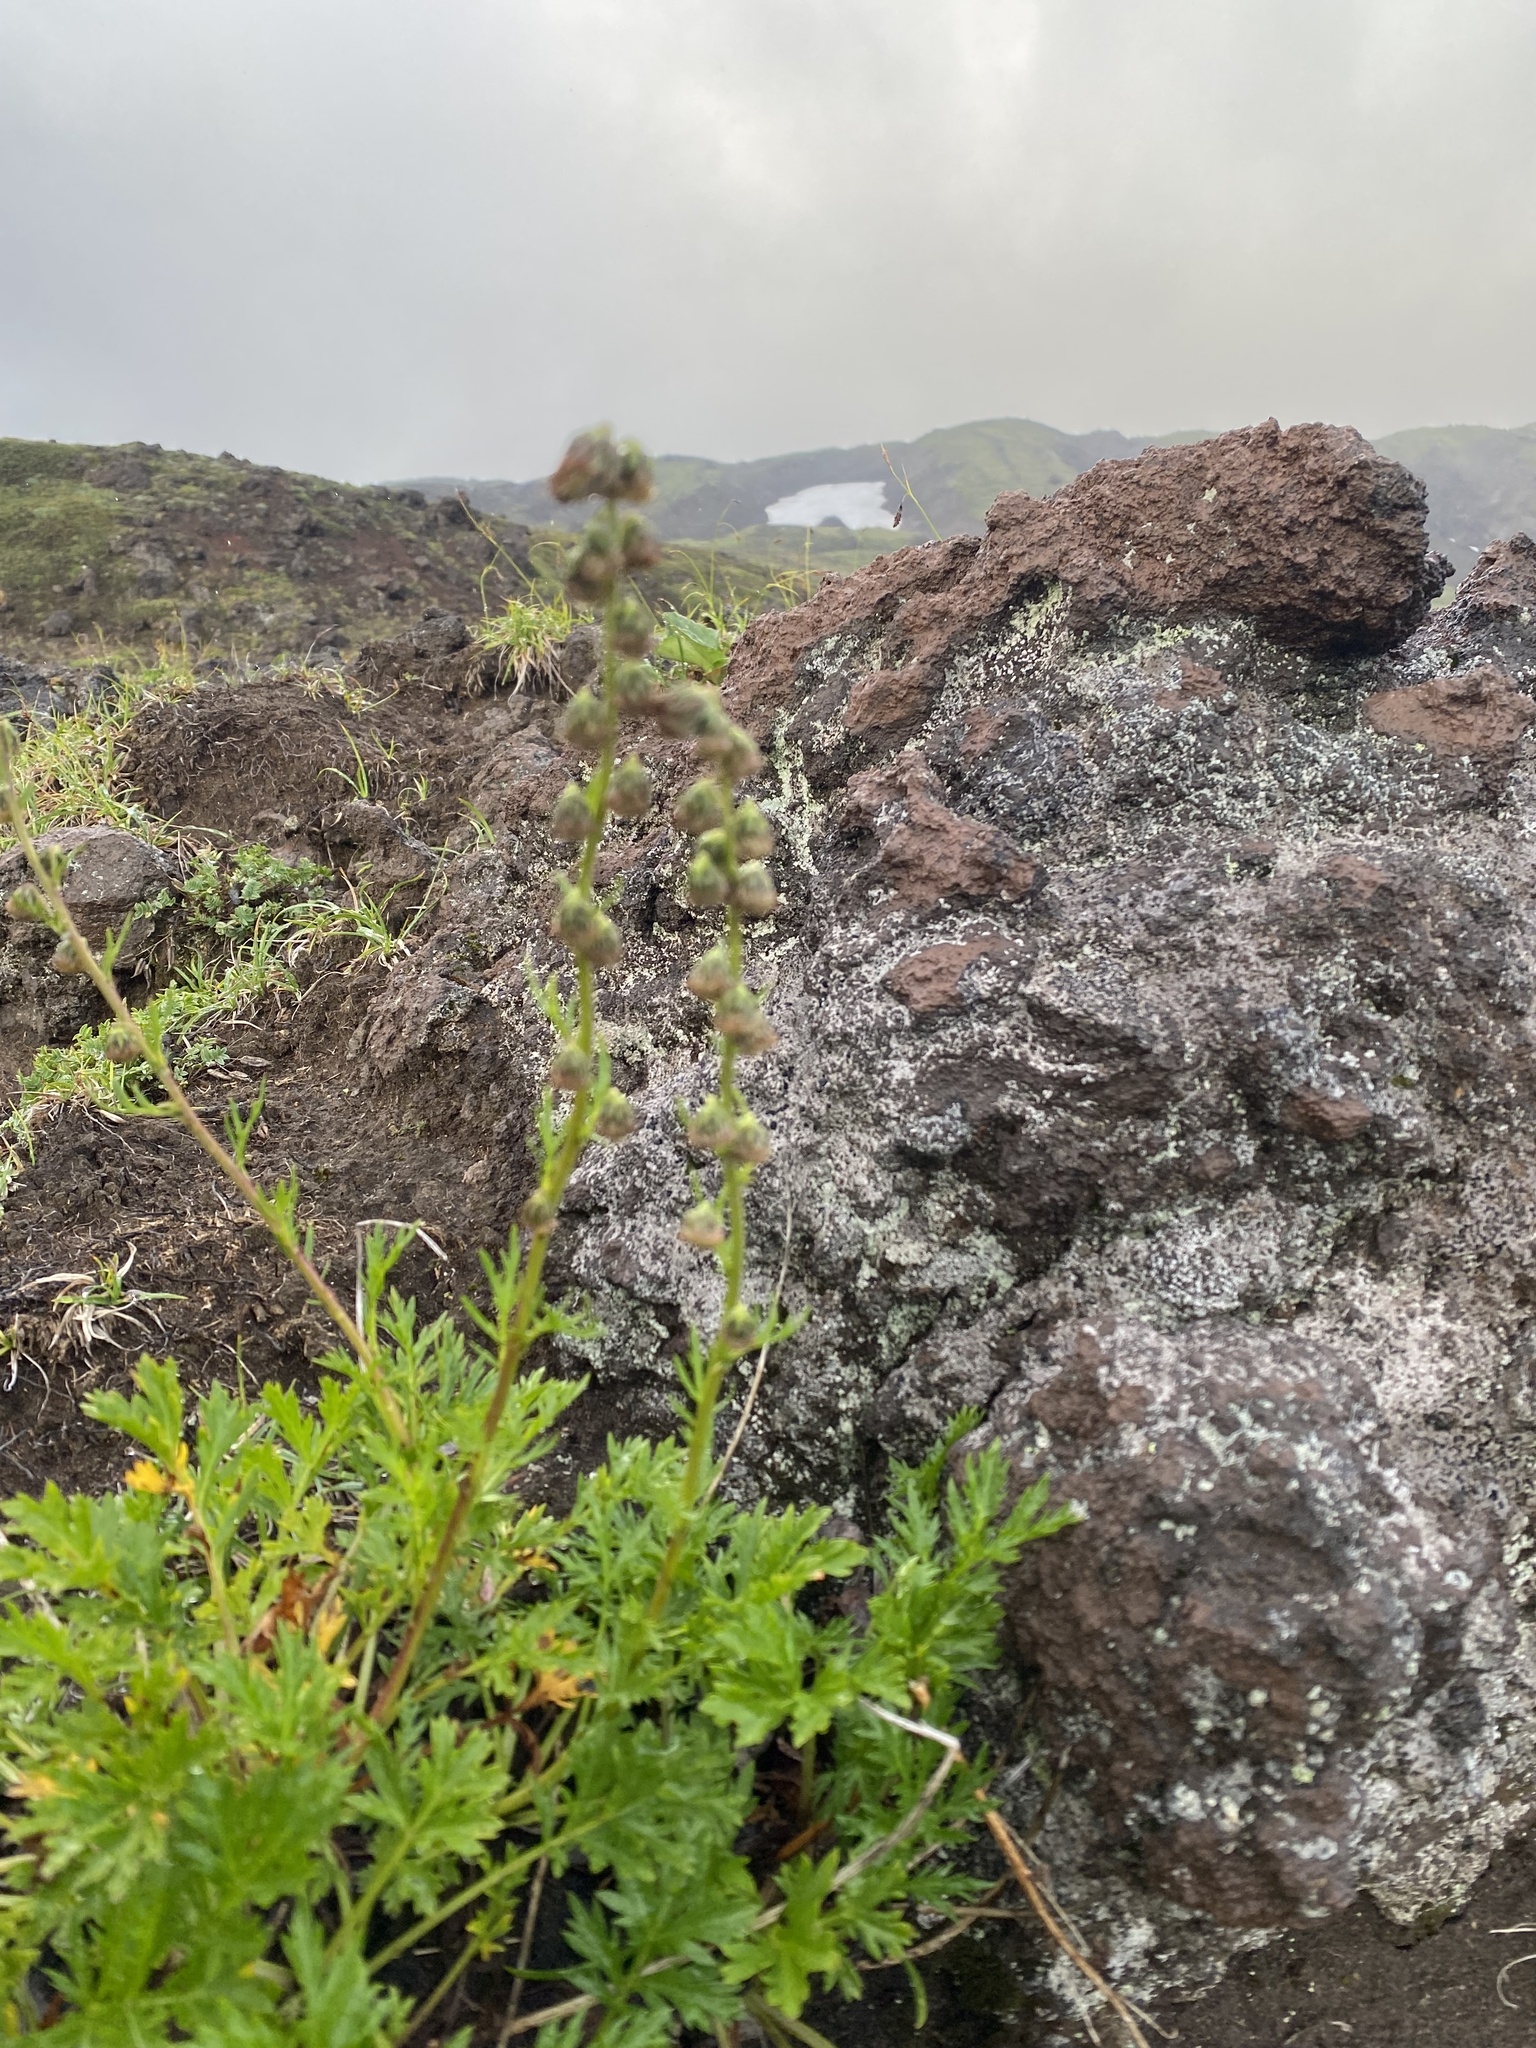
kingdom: Plantae
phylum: Tracheophyta
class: Magnoliopsida
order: Asterales
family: Asteraceae
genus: Artemisia
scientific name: Artemisia arctica
